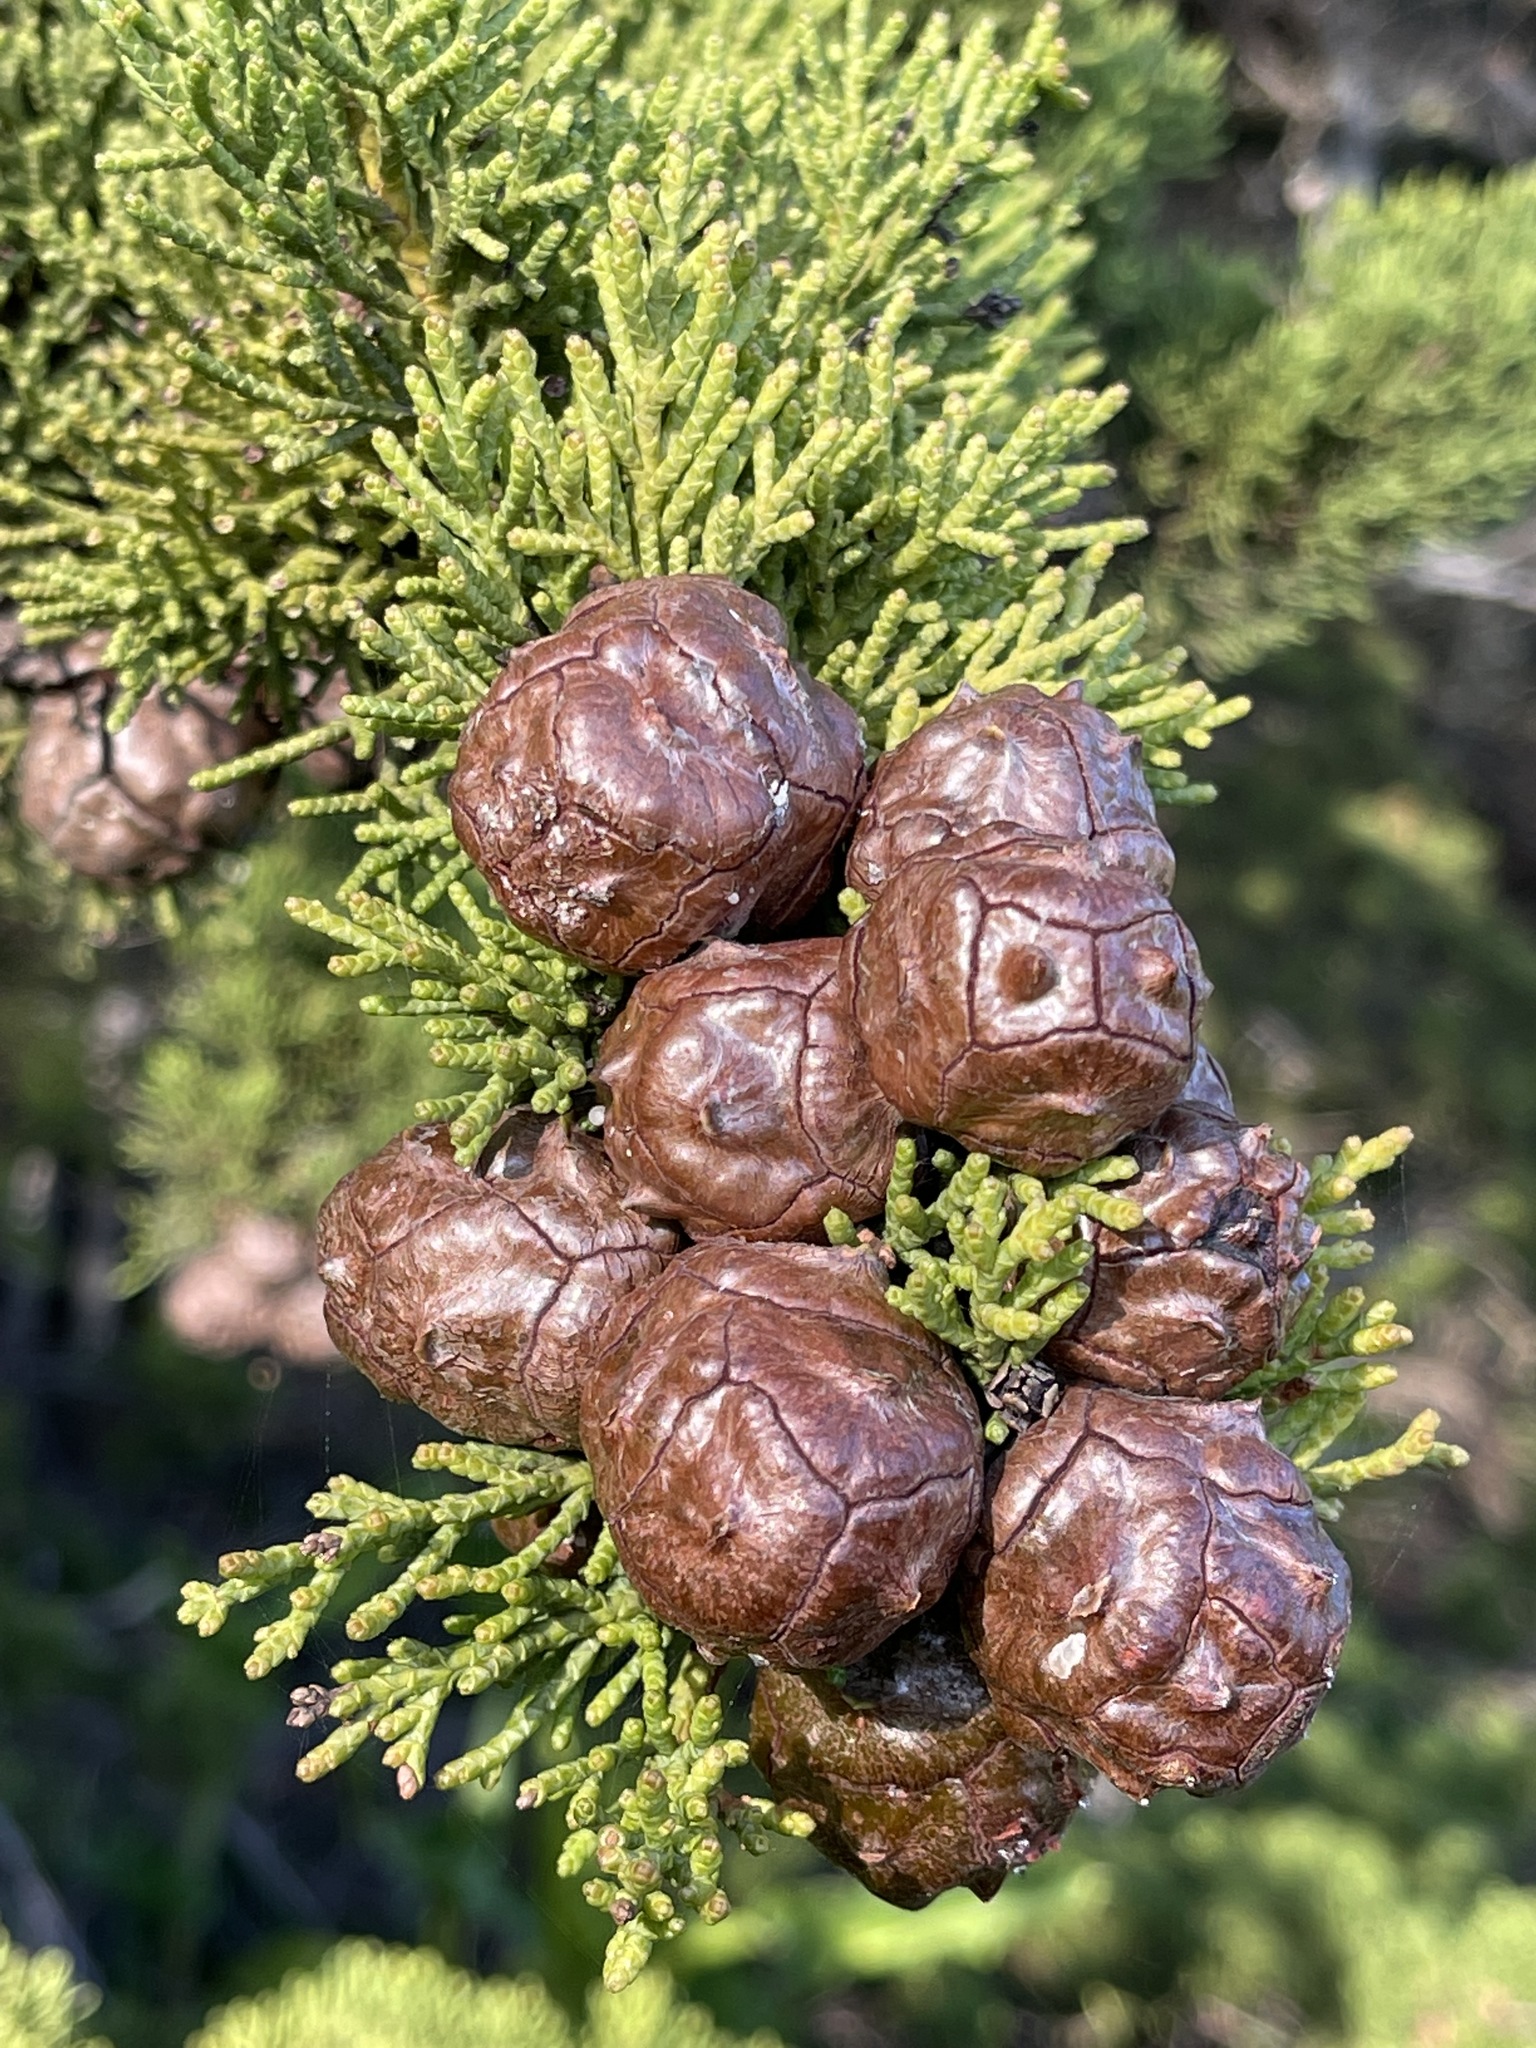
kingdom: Plantae
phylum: Tracheophyta
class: Pinopsida
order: Pinales
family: Cupressaceae
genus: Cupressus
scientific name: Cupressus macrocarpa
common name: Monterey cypress
